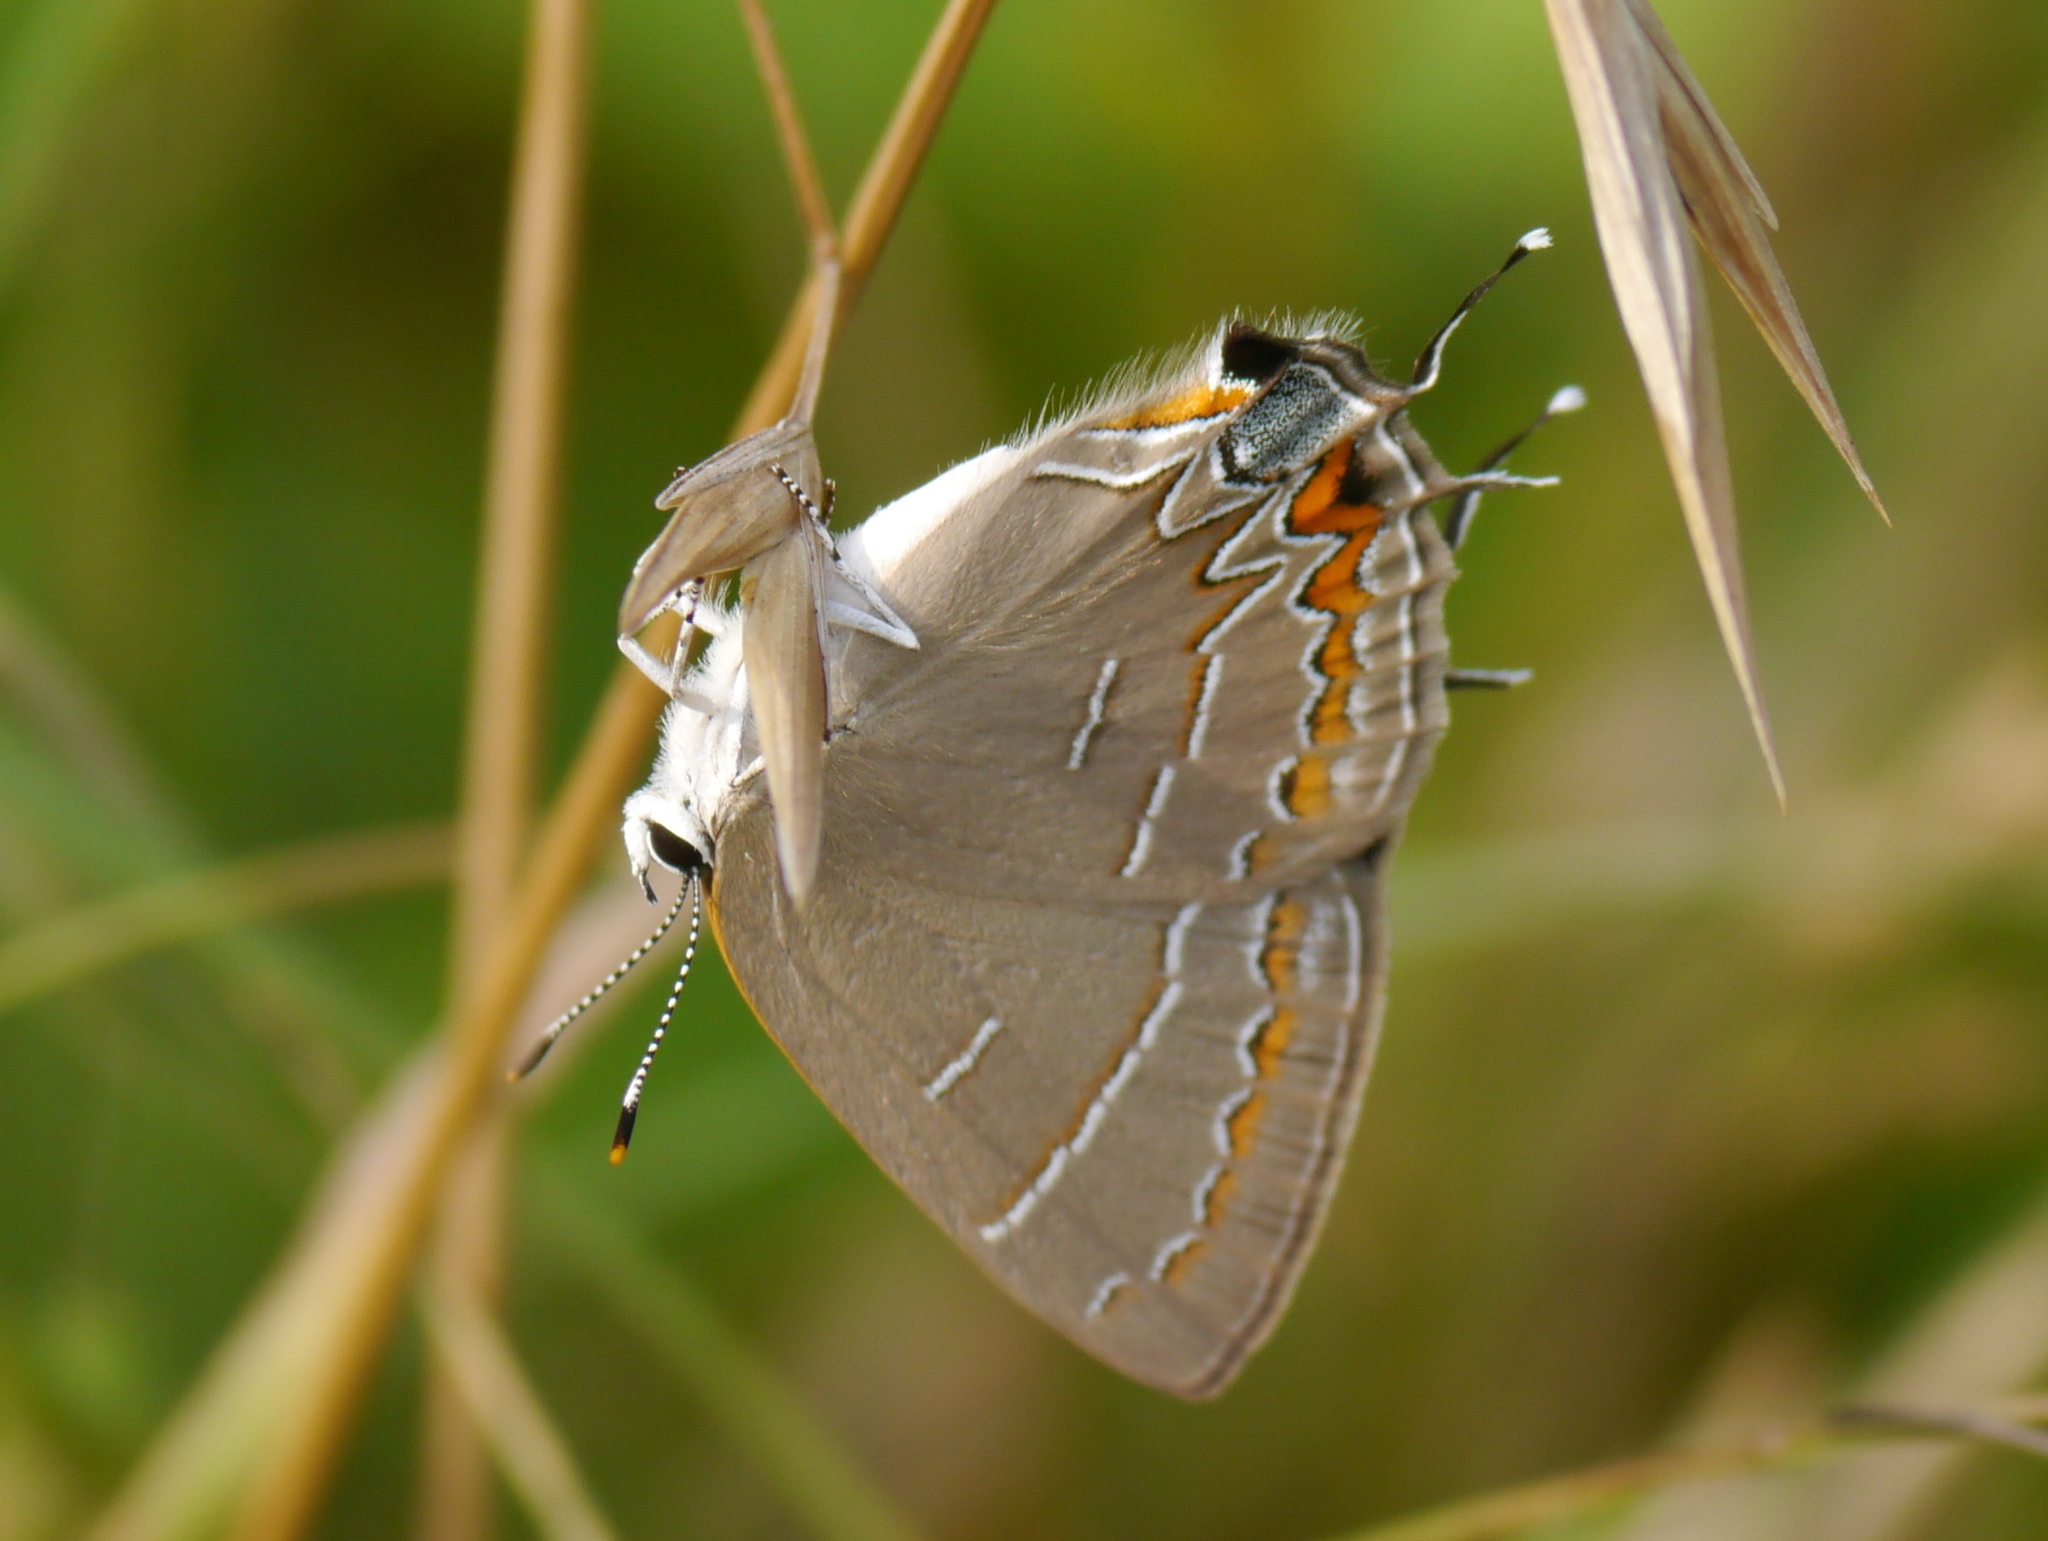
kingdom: Animalia
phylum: Arthropoda
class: Insecta
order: Lepidoptera
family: Lycaenidae
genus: Phaeostrymon
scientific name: Phaeostrymon alcestis
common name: Soapberry hairstreak
